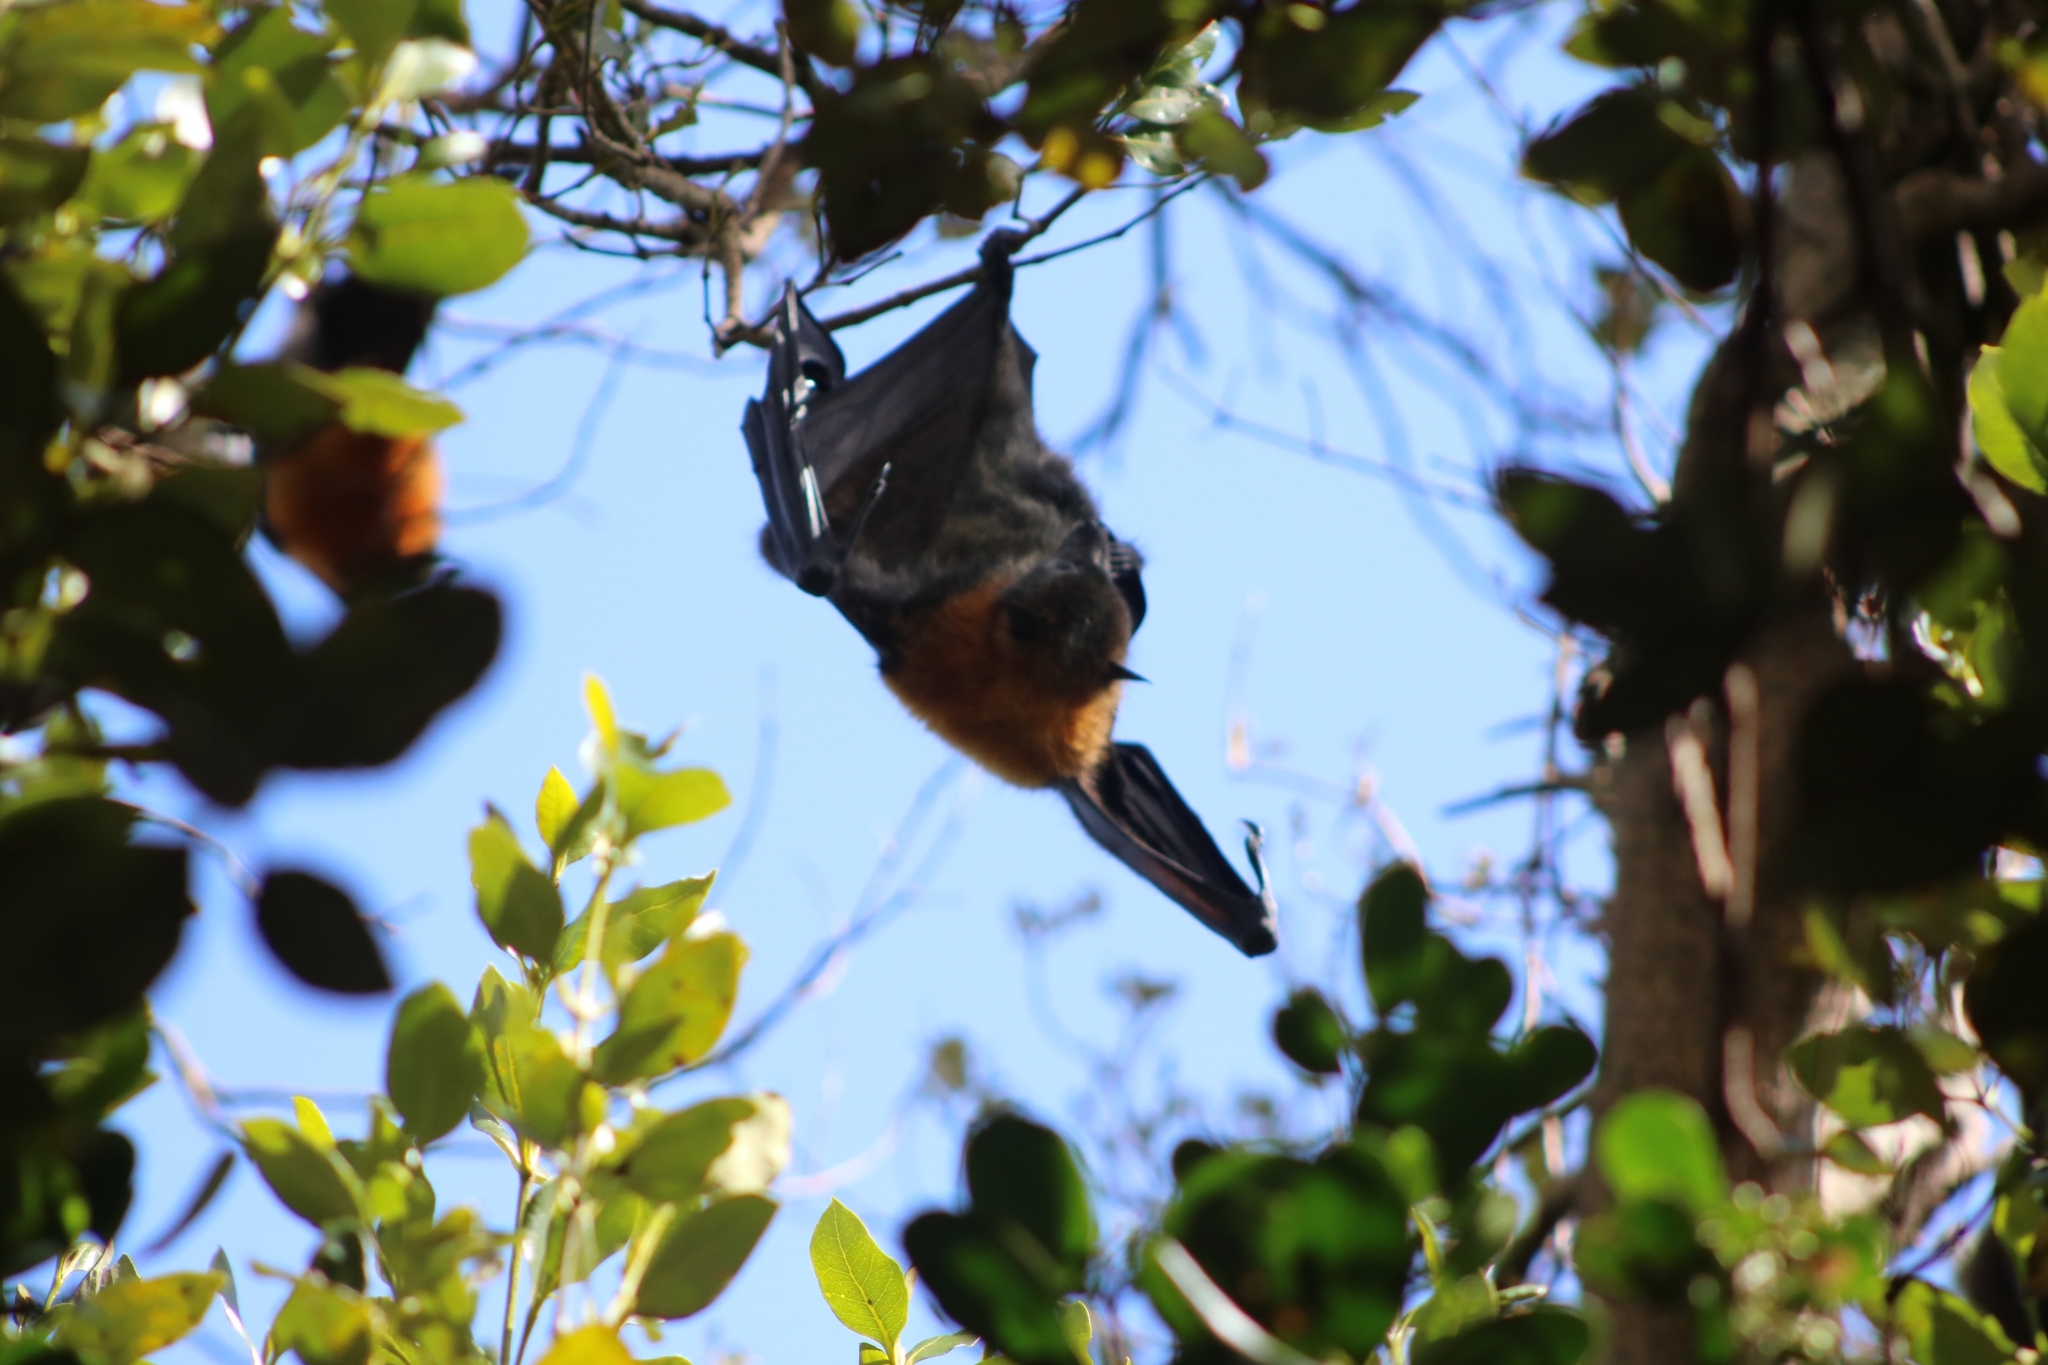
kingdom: Animalia
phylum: Chordata
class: Mammalia
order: Chiroptera
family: Pteropodidae
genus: Pteropus
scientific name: Pteropus poliocephalus
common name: Gray-headed flying fox
